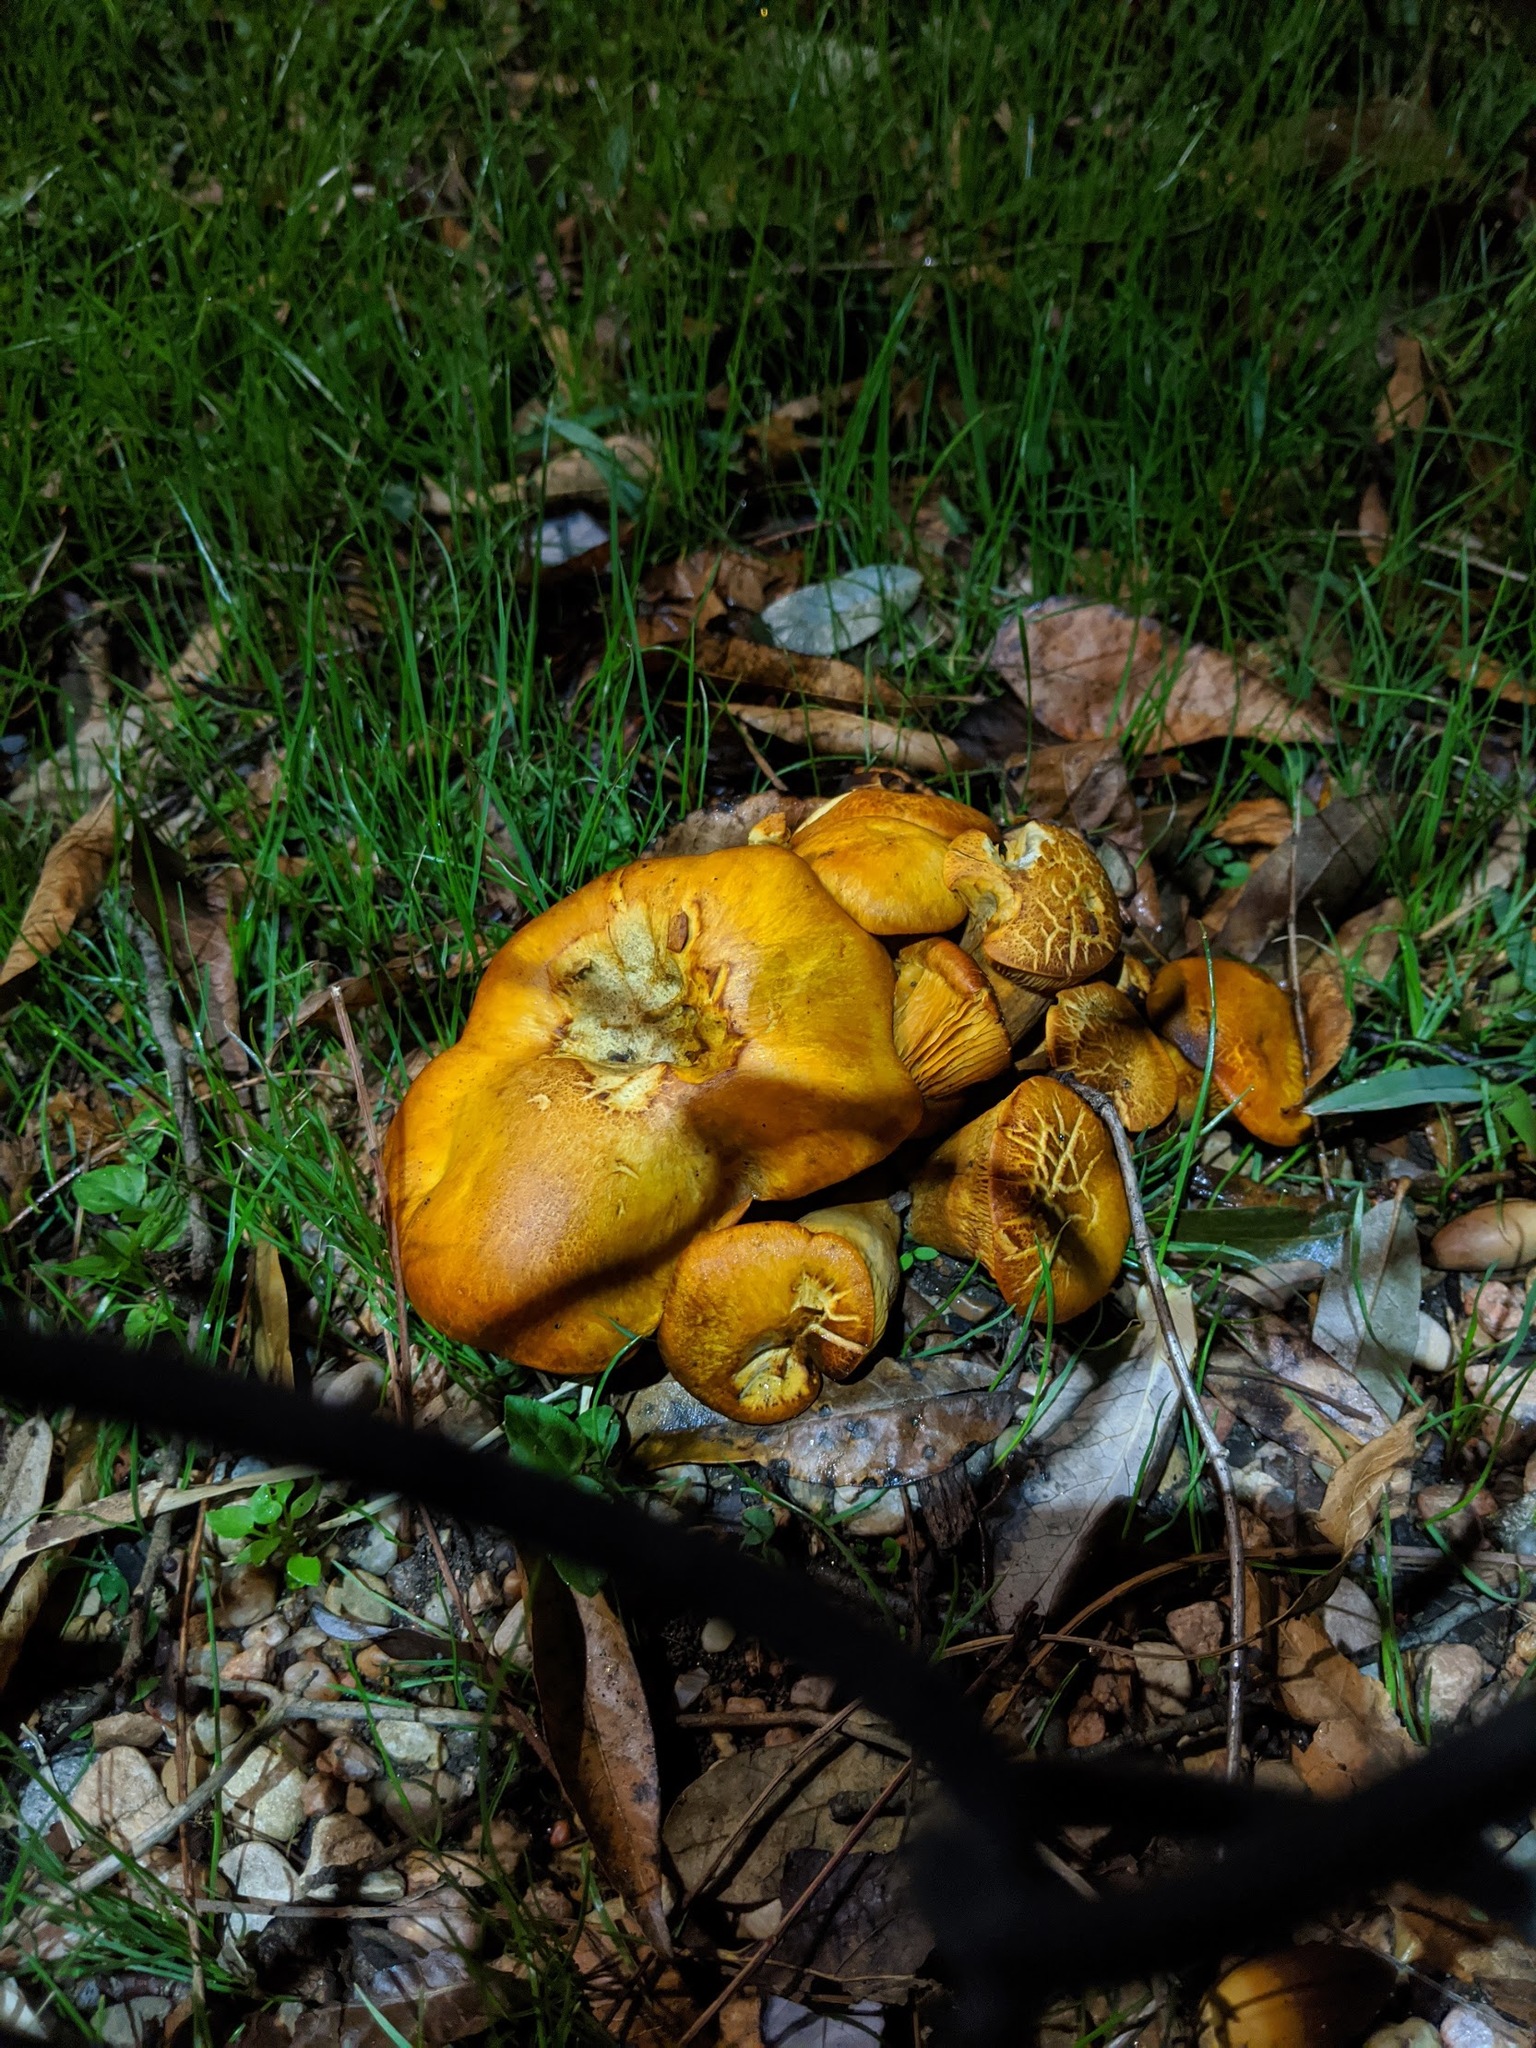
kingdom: Fungi
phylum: Basidiomycota
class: Agaricomycetes
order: Agaricales
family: Omphalotaceae
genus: Omphalotus
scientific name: Omphalotus subilludens
